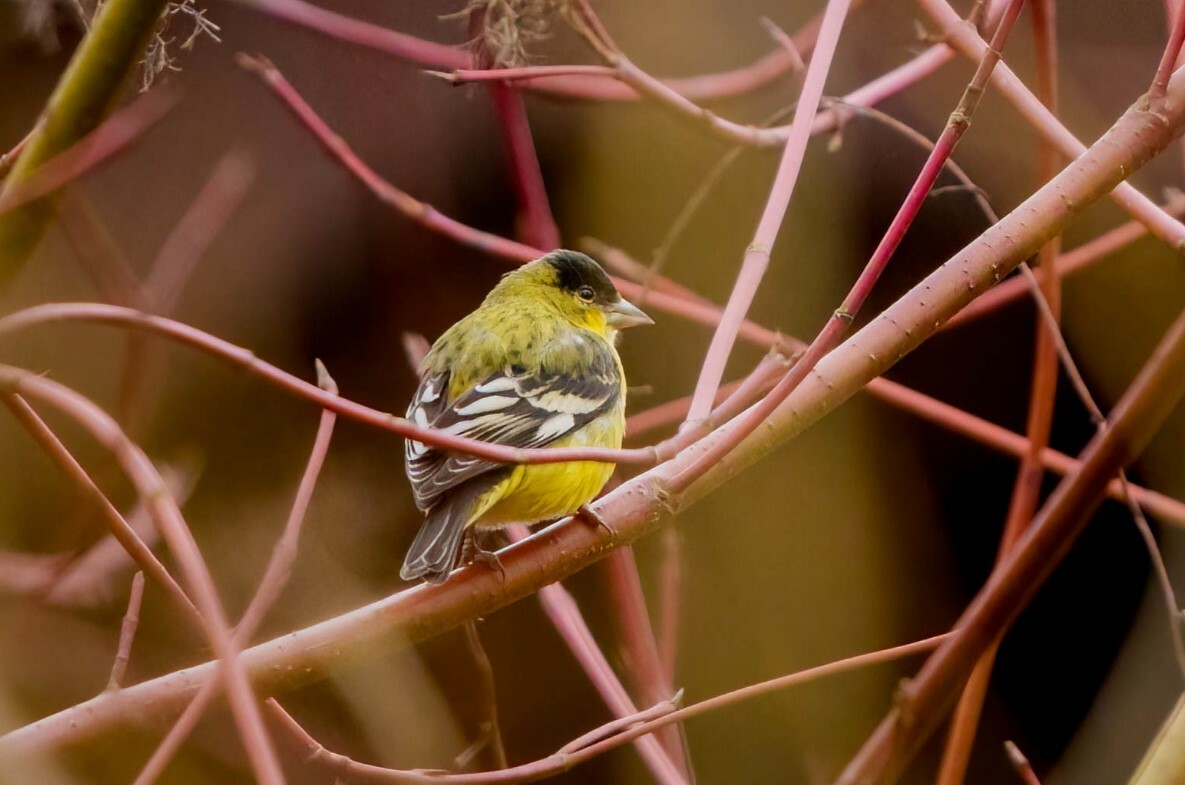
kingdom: Animalia
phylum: Chordata
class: Aves
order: Passeriformes
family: Fringillidae
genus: Spinus
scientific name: Spinus psaltria
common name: Lesser goldfinch
